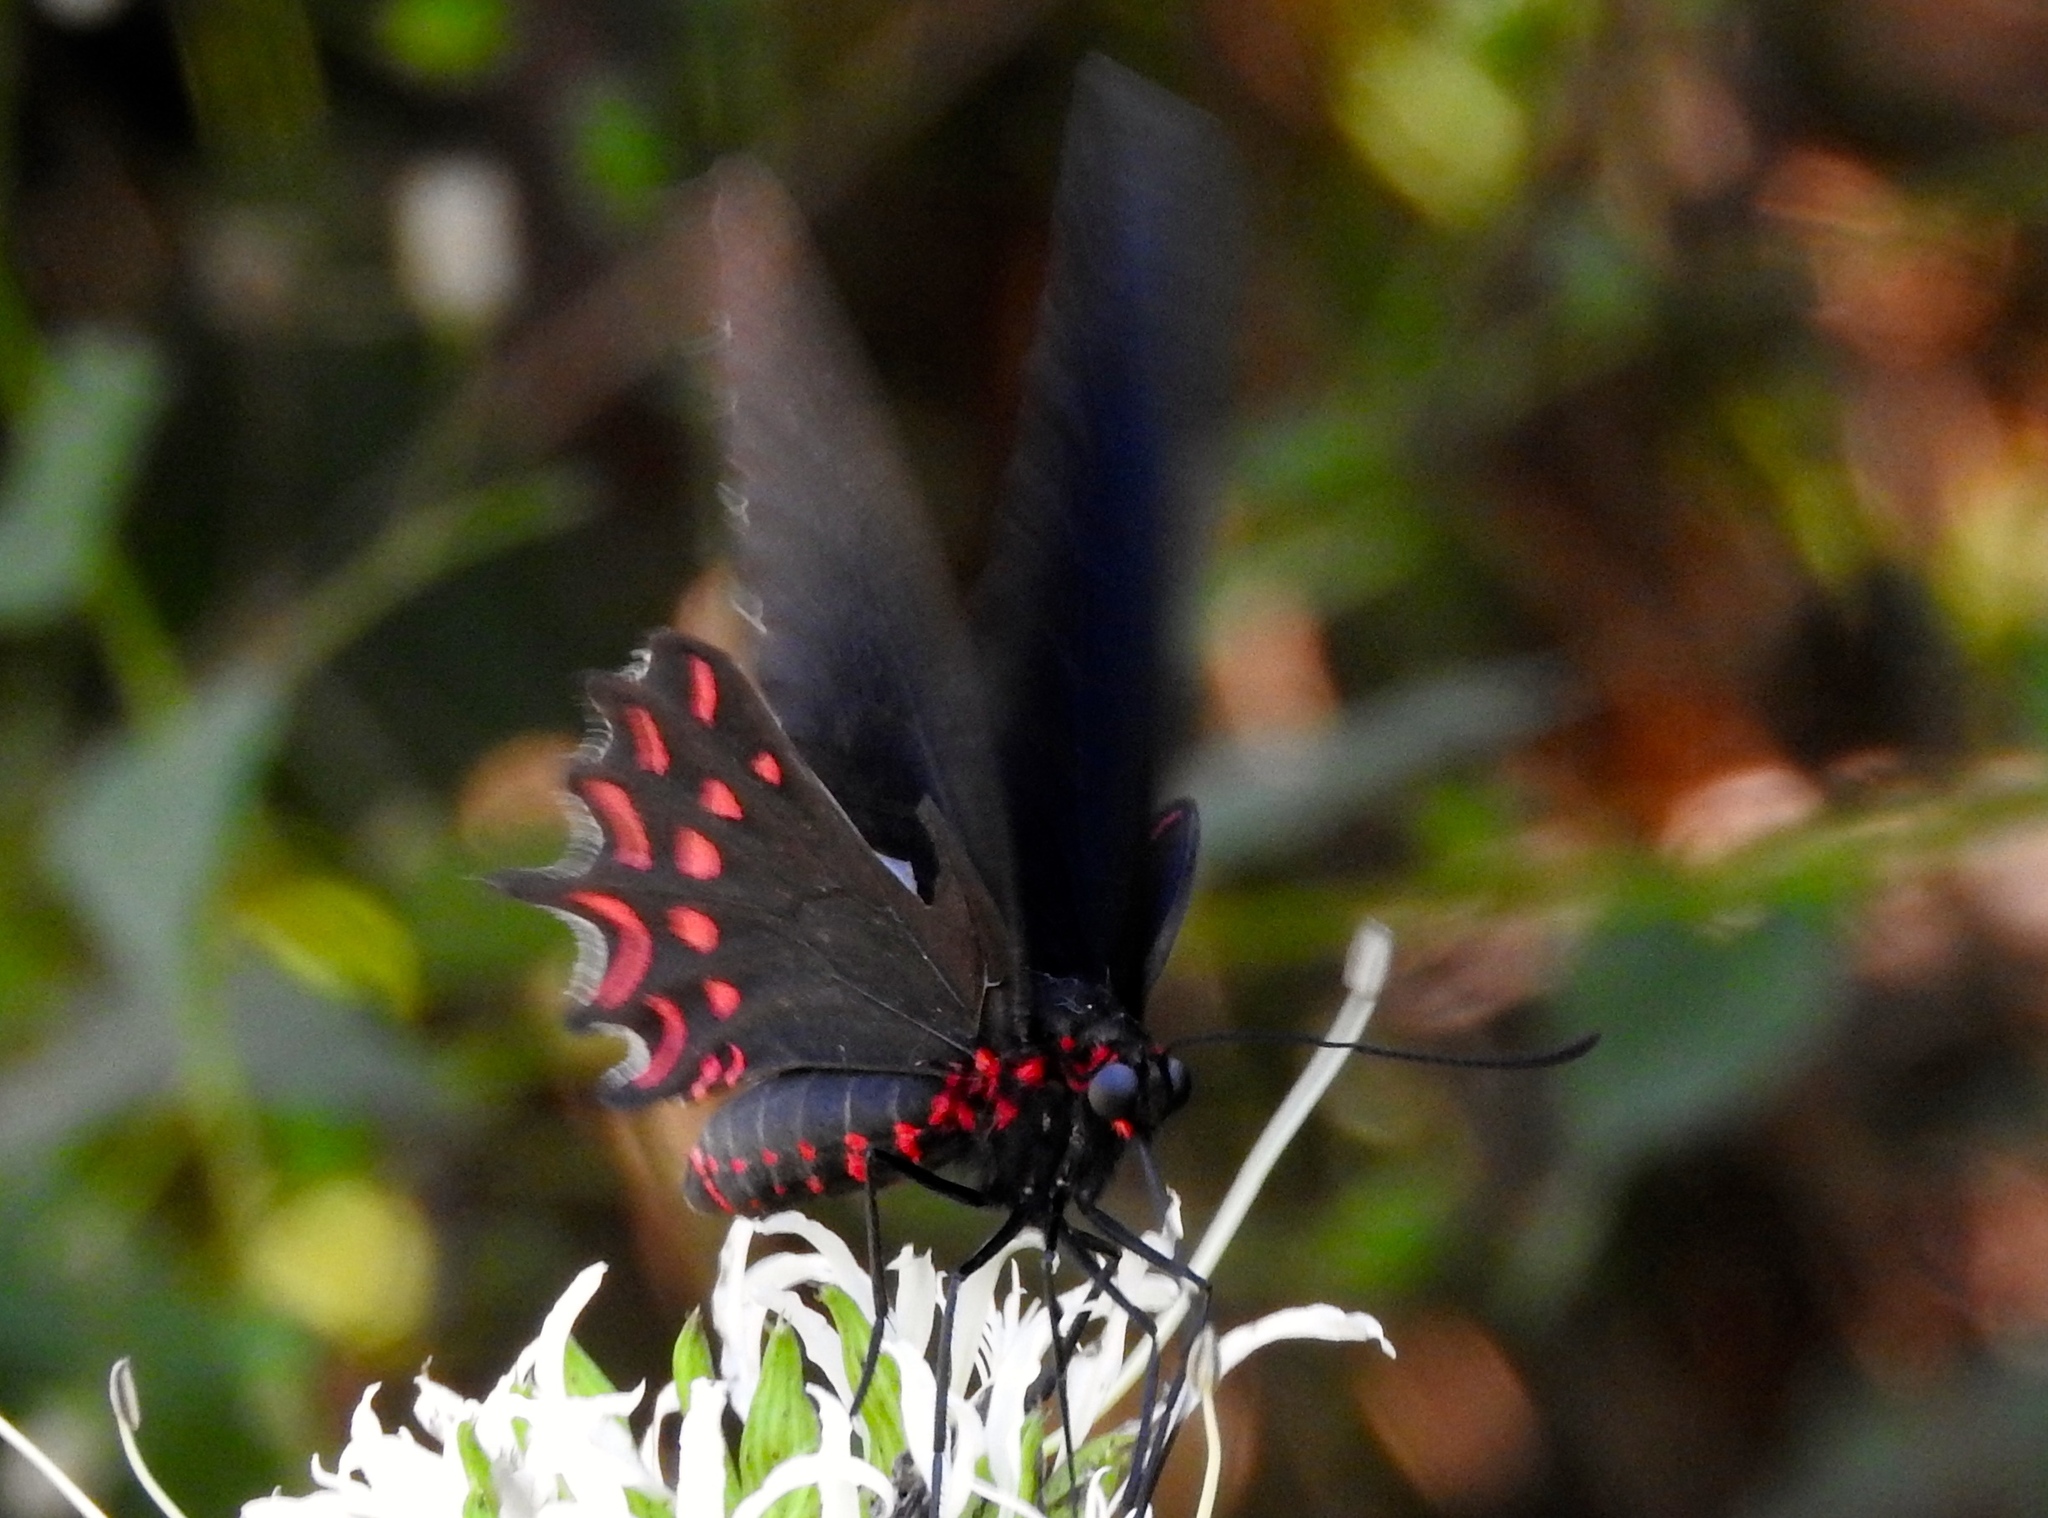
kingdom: Animalia
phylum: Arthropoda
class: Insecta
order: Lepidoptera
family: Papilionidae
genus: Parides
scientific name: Parides photinus
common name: Pink-spotted cattleheart
